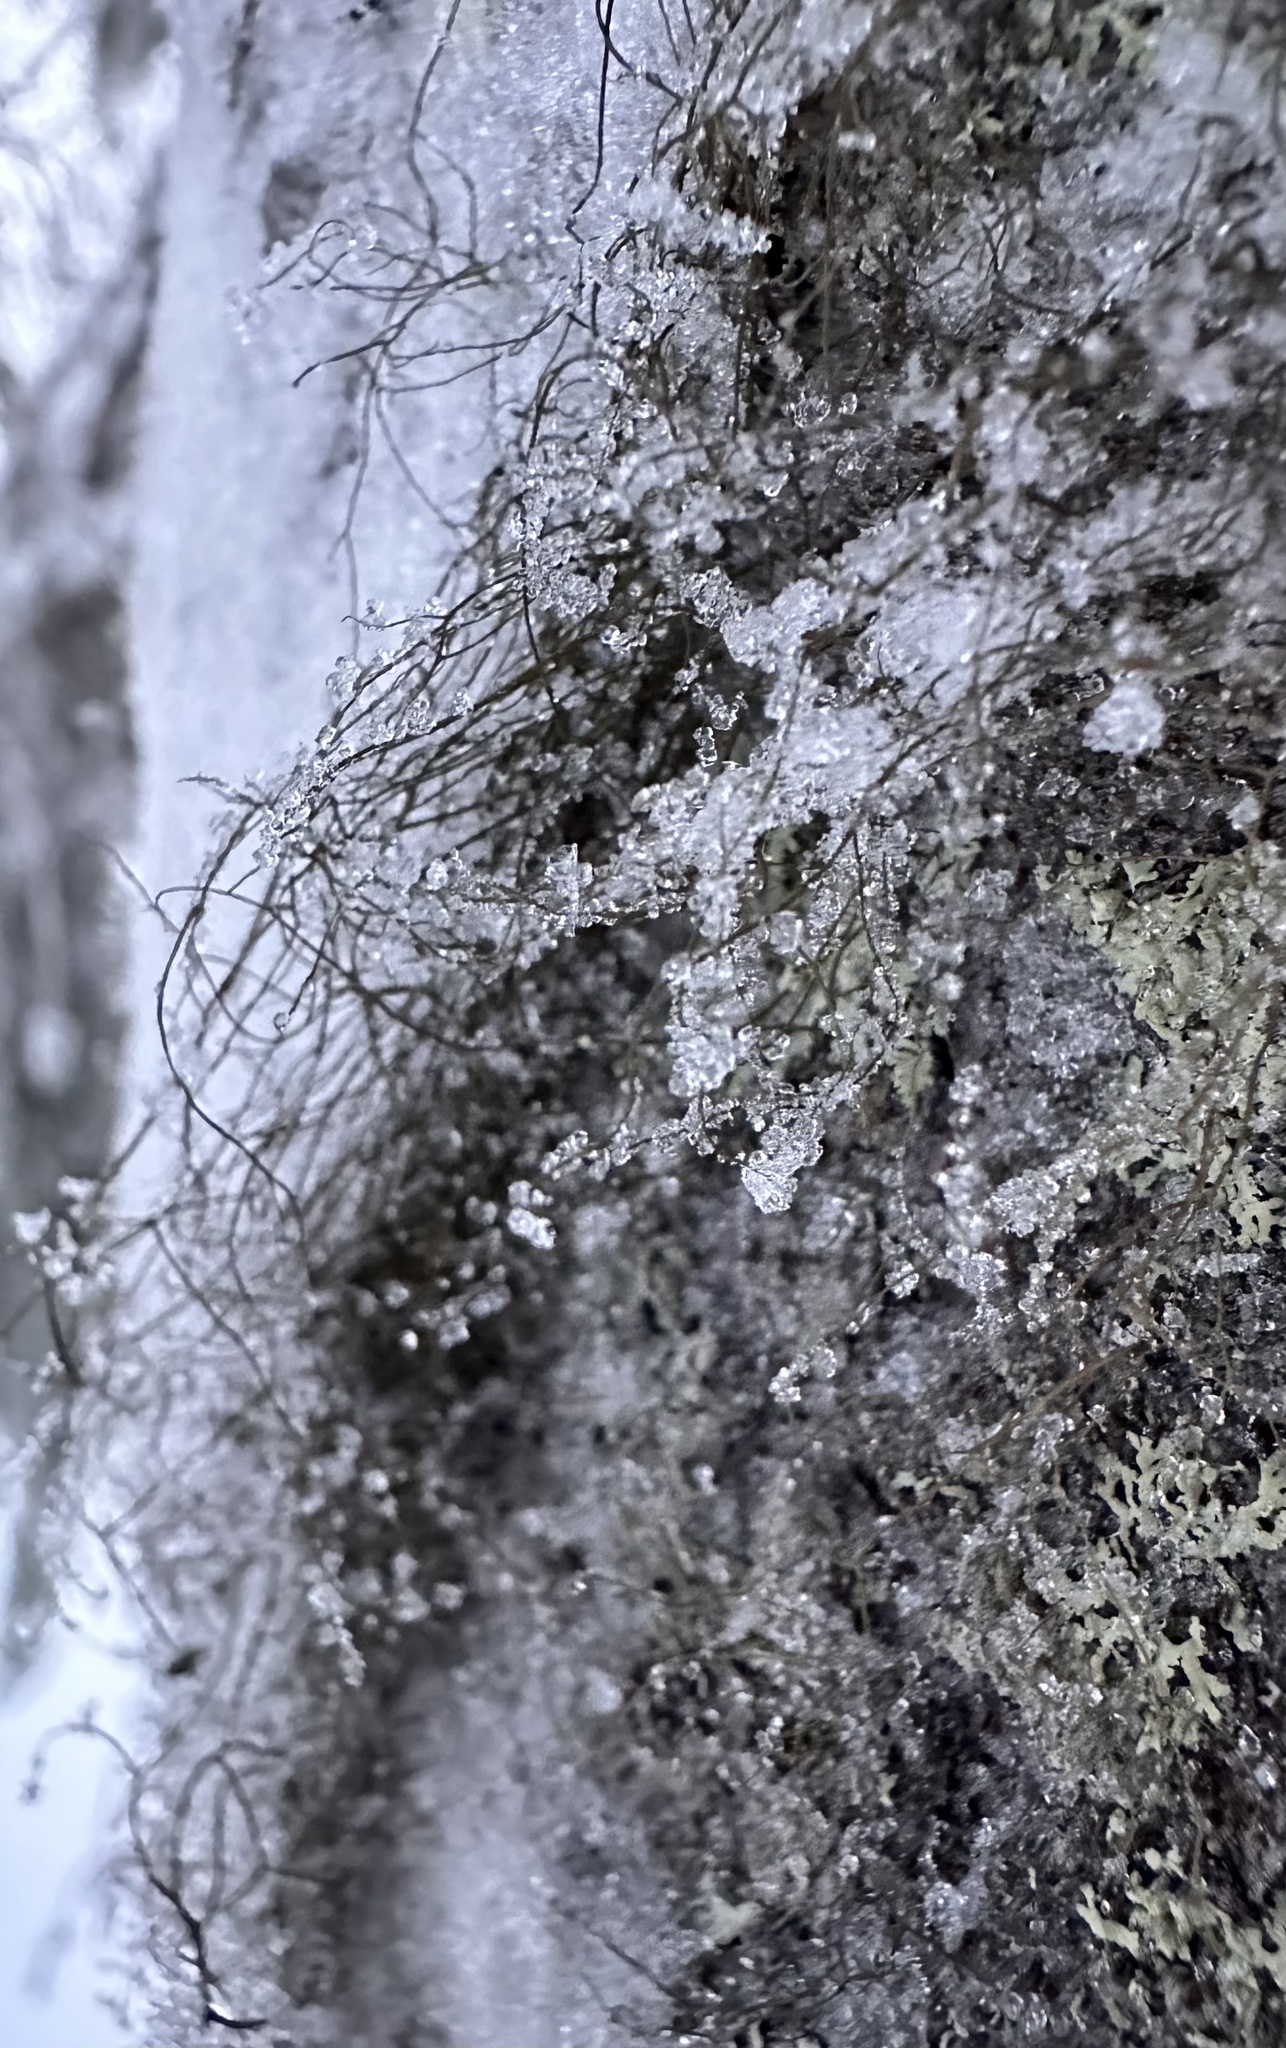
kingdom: Fungi
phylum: Ascomycota
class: Lecanoromycetes
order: Lecanorales
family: Parmeliaceae
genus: Bryoria
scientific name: Bryoria fuscescens
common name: Pale-footed horsehair lichen
